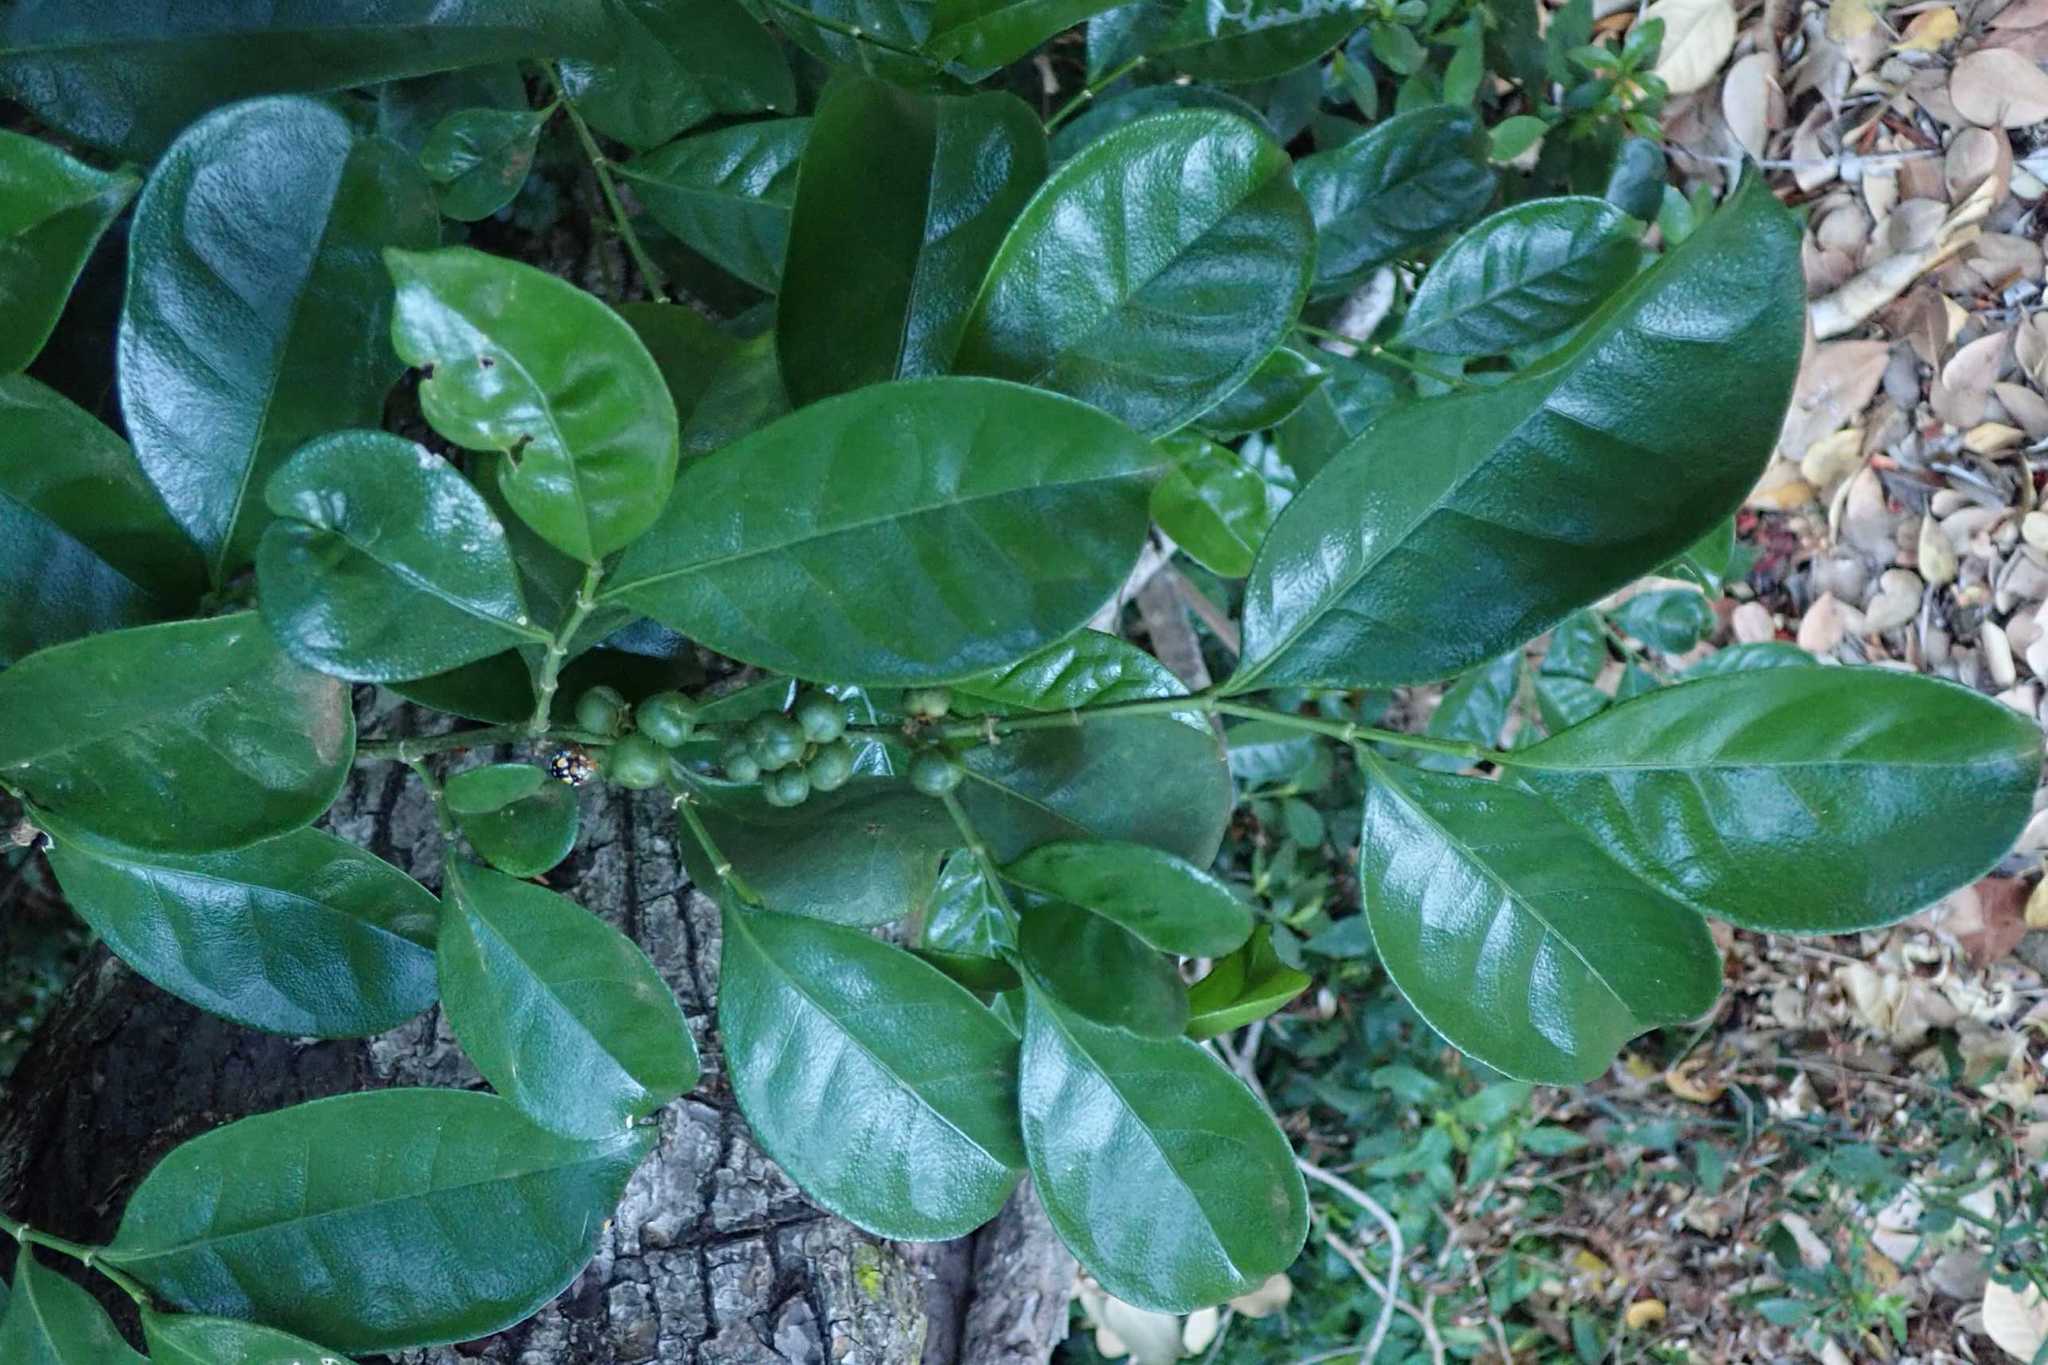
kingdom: Plantae
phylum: Tracheophyta
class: Magnoliopsida
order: Malpighiales
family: Euphorbiaceae
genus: Suregada
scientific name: Suregada zanzibariensis
